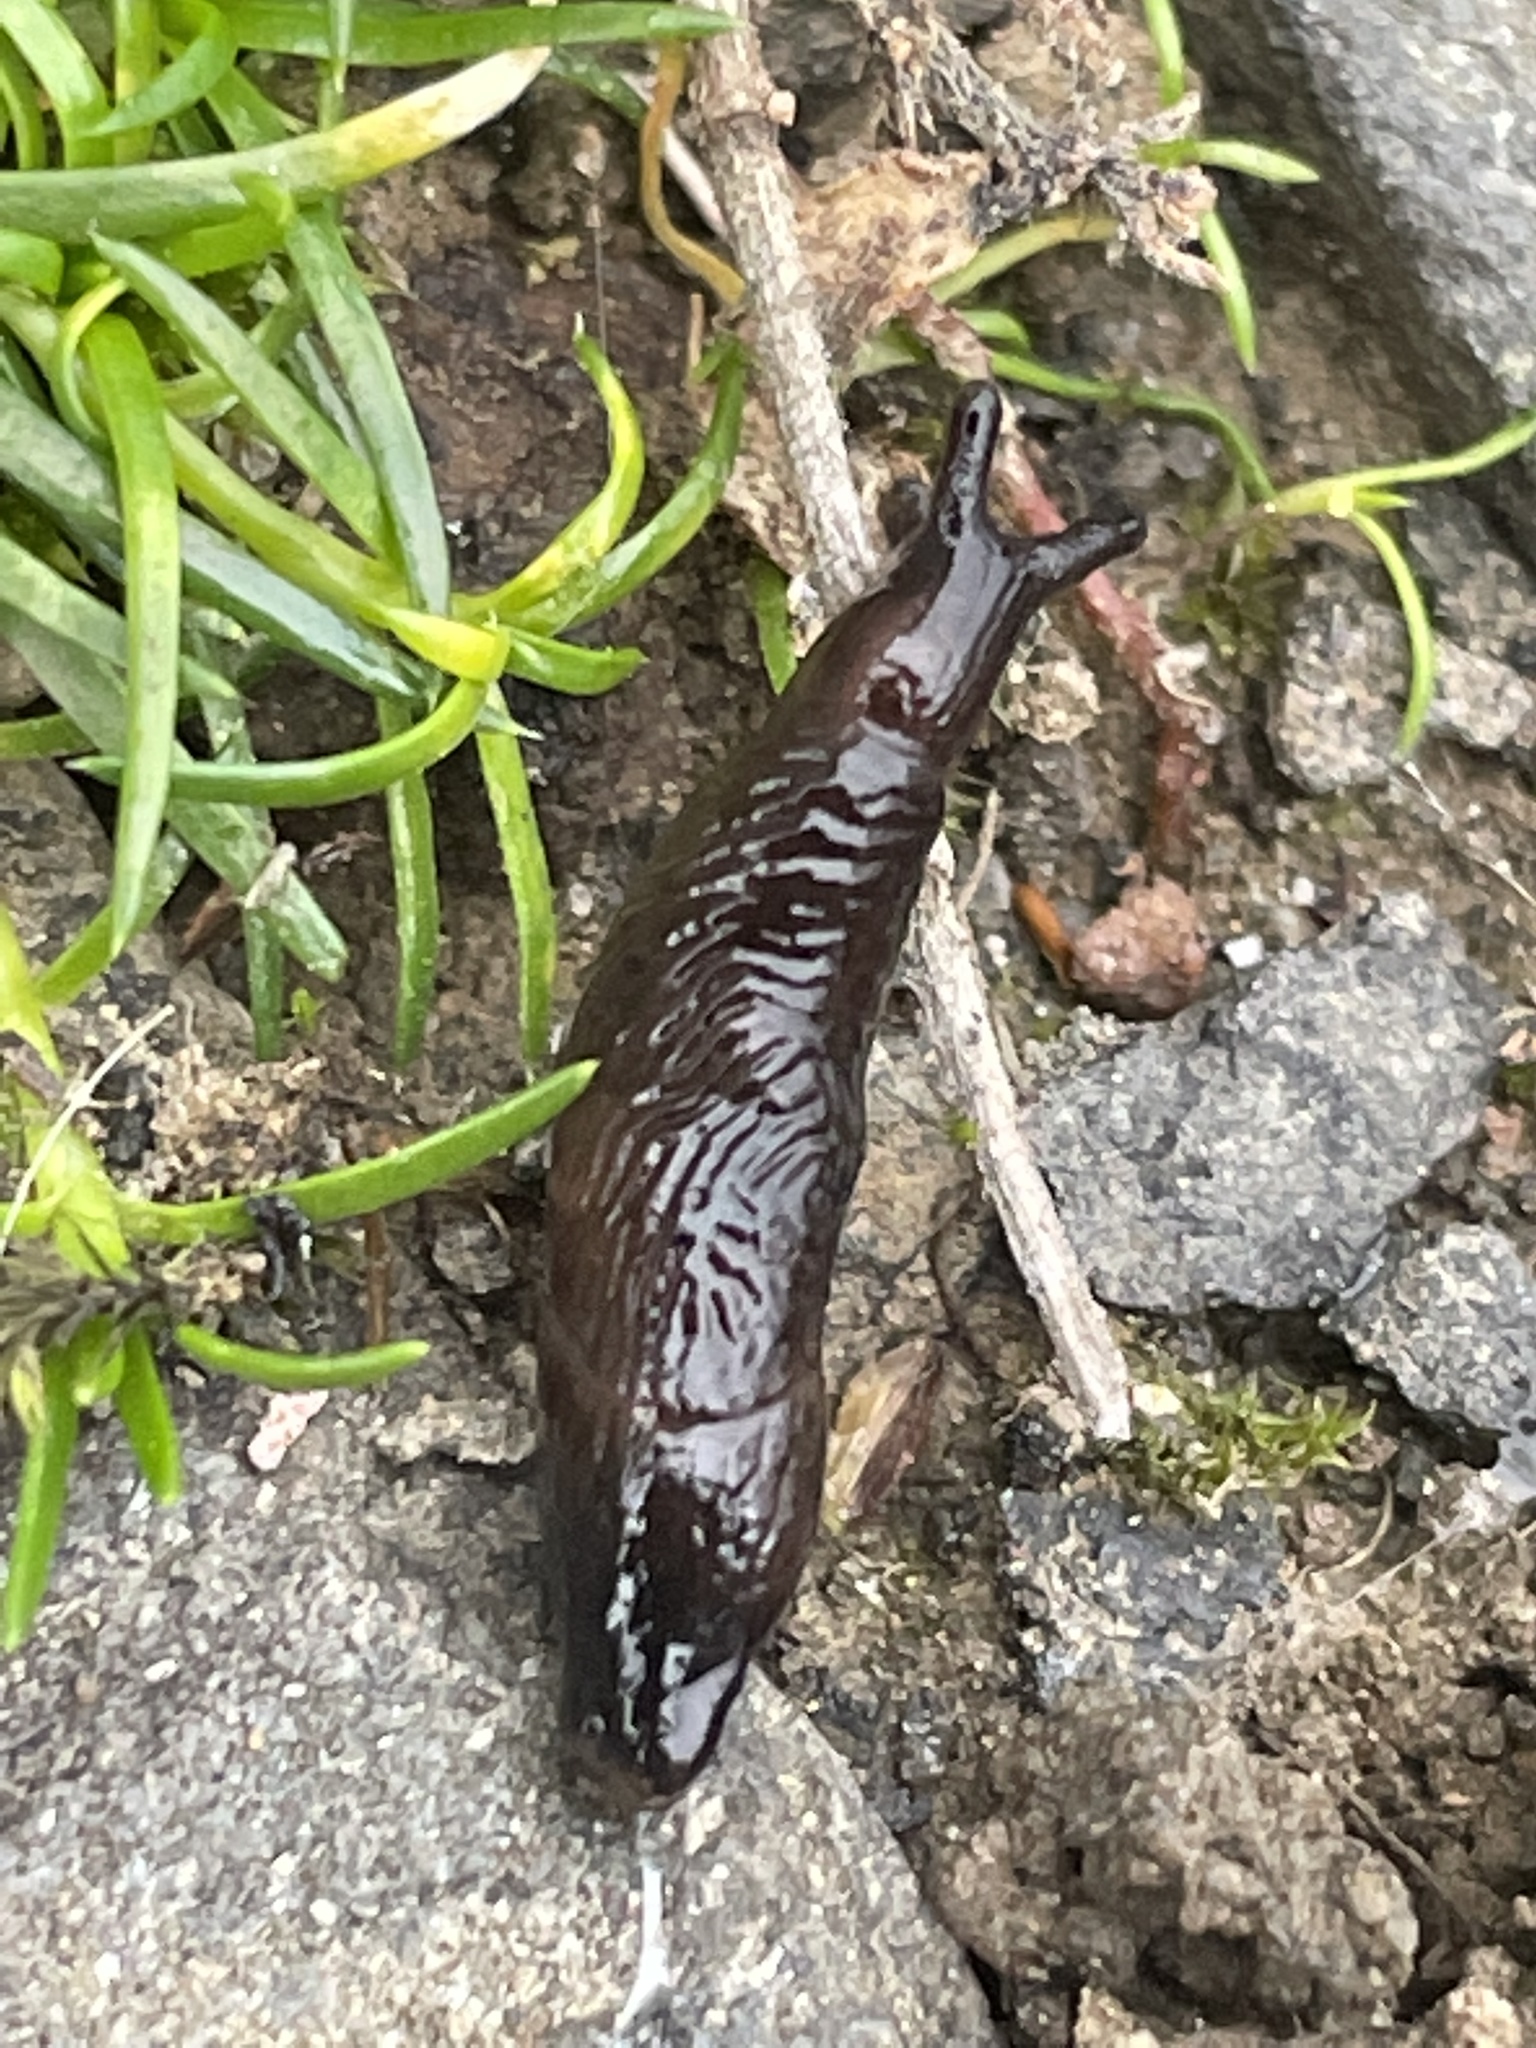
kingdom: Animalia
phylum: Mollusca
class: Gastropoda
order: Stylommatophora
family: Agriolimacidae
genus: Deroceras
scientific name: Deroceras laeve
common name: Marsh slug
